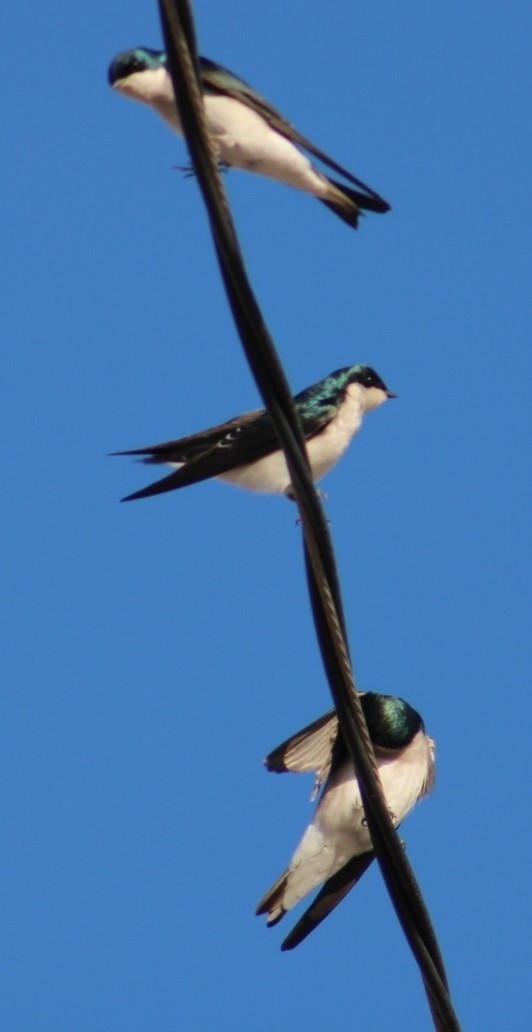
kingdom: Animalia
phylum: Chordata
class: Aves
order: Passeriformes
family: Hirundinidae
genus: Tachycineta
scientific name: Tachycineta bicolor
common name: Tree swallow
